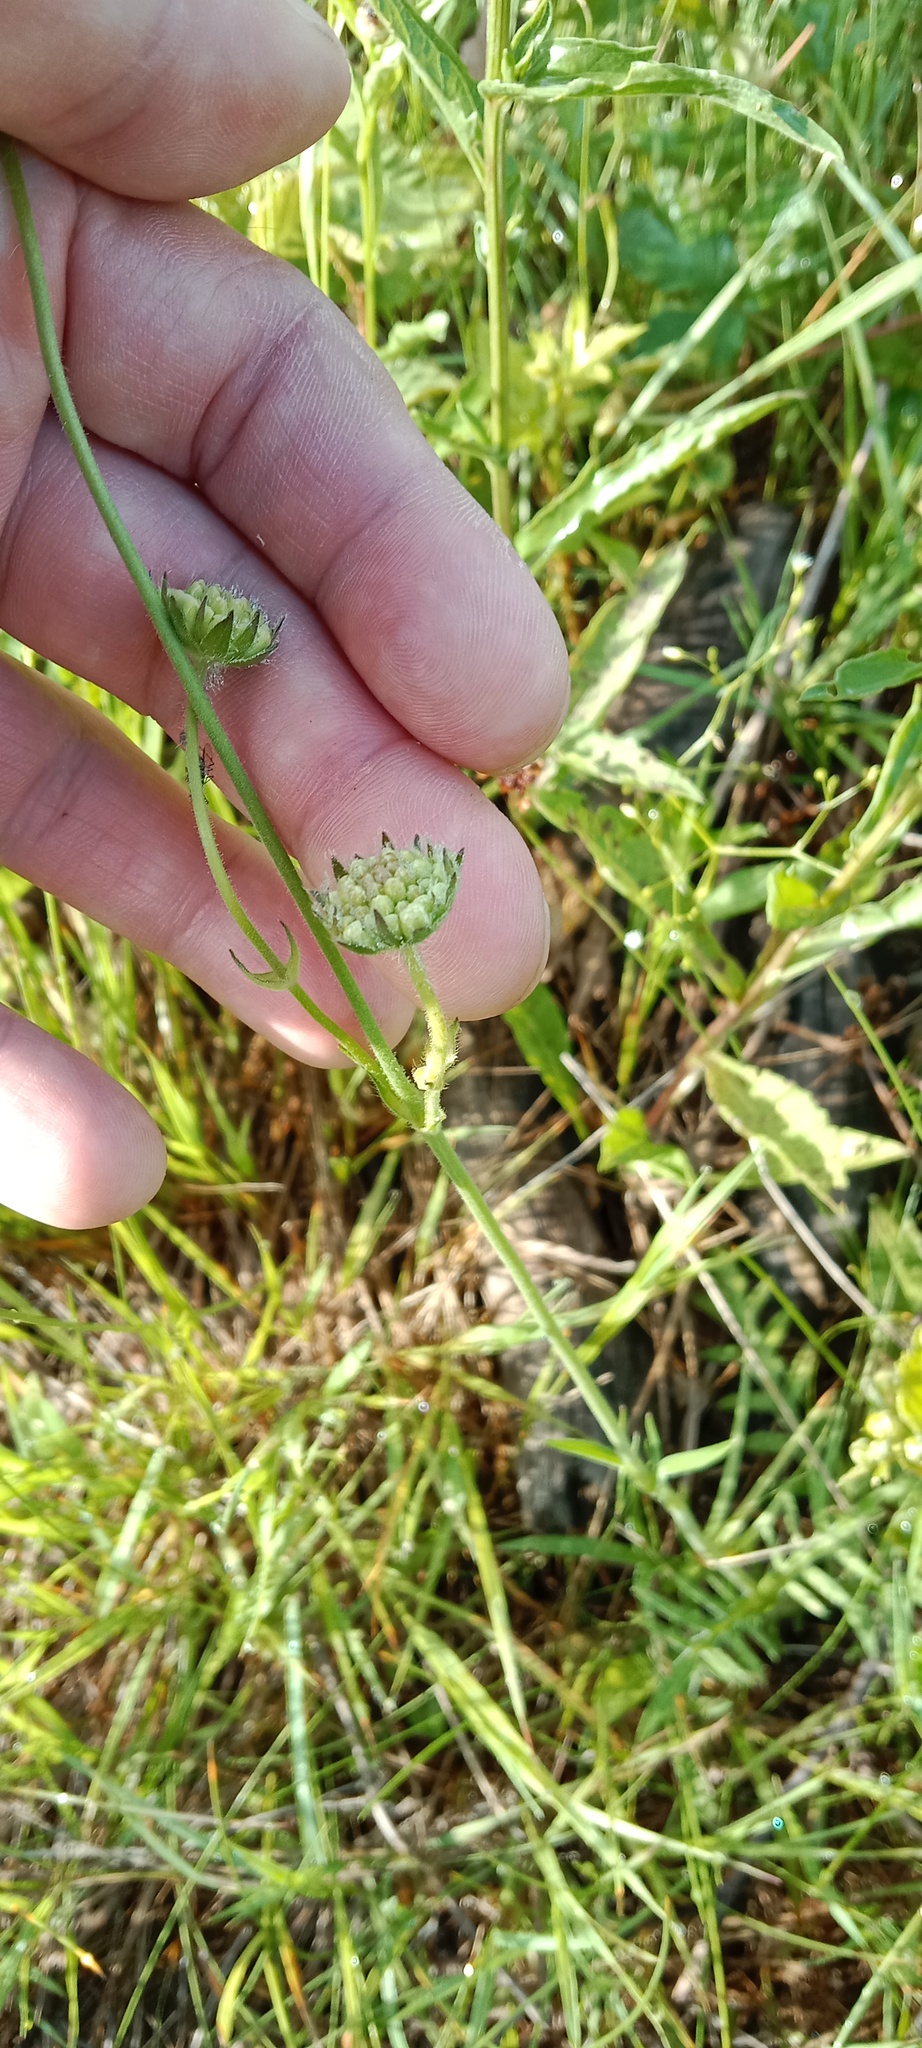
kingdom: Plantae
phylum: Tracheophyta
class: Magnoliopsida
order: Dipsacales
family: Caprifoliaceae
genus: Knautia
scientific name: Knautia arvensis
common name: Field scabiosa
